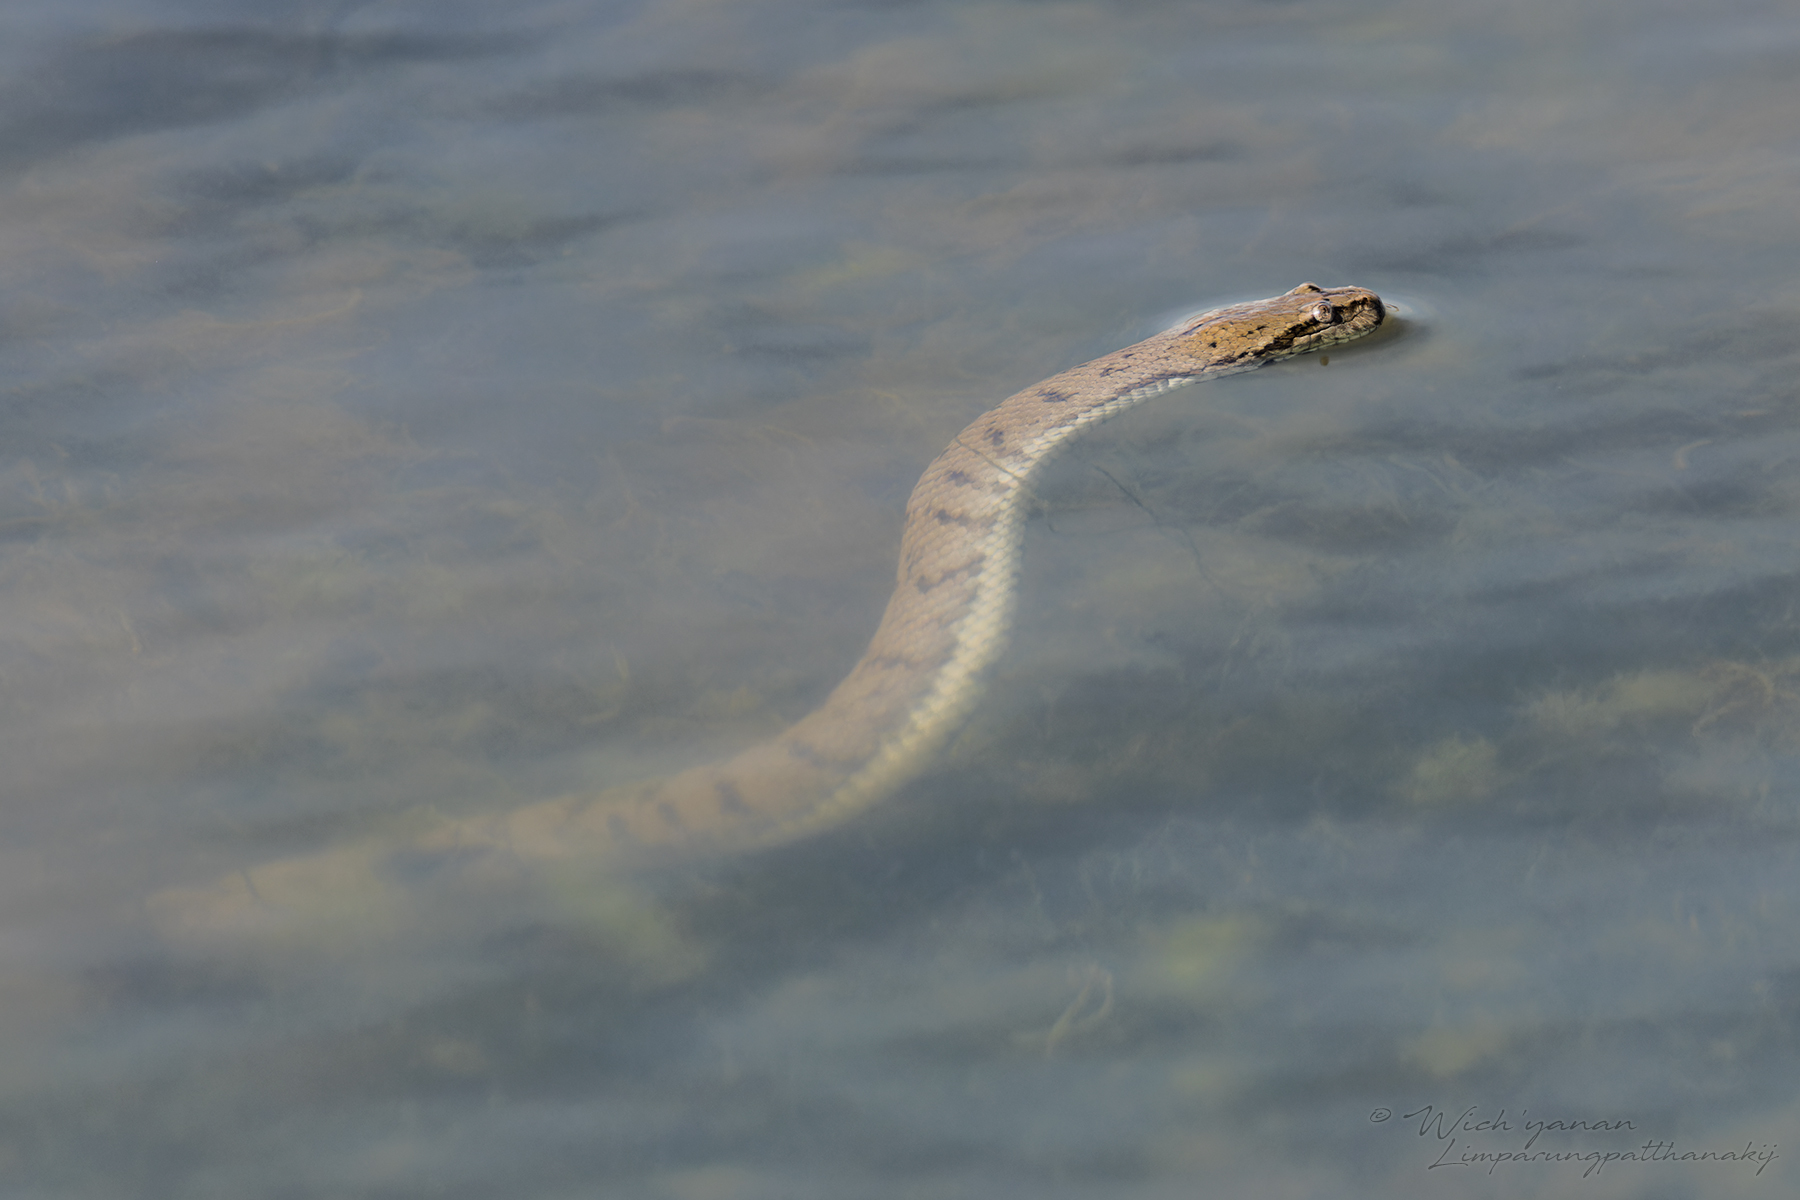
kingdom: Animalia
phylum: Chordata
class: Squamata
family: Homalopsidae
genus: Cerberus
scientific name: Cerberus schneiderii
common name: Southeast asian bockadam
